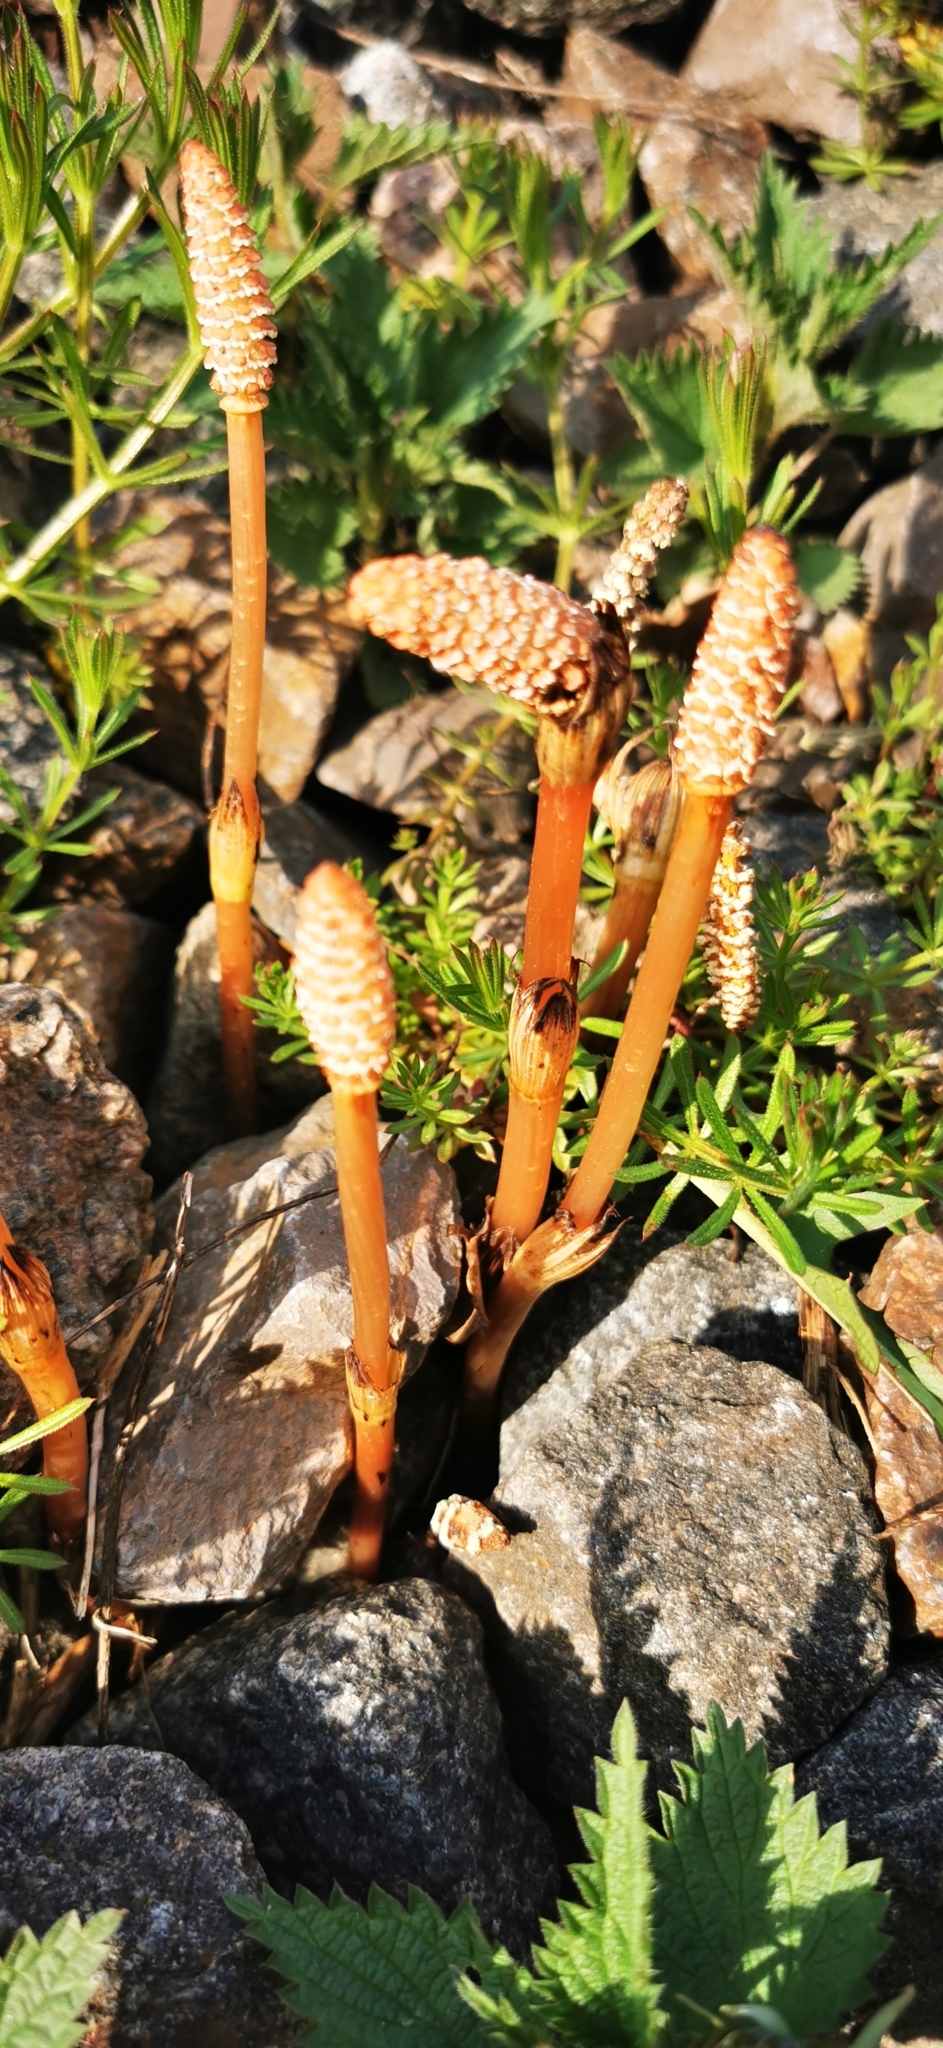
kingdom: Plantae
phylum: Tracheophyta
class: Polypodiopsida
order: Equisetales
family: Equisetaceae
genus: Equisetum
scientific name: Equisetum arvense
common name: Field horsetail
